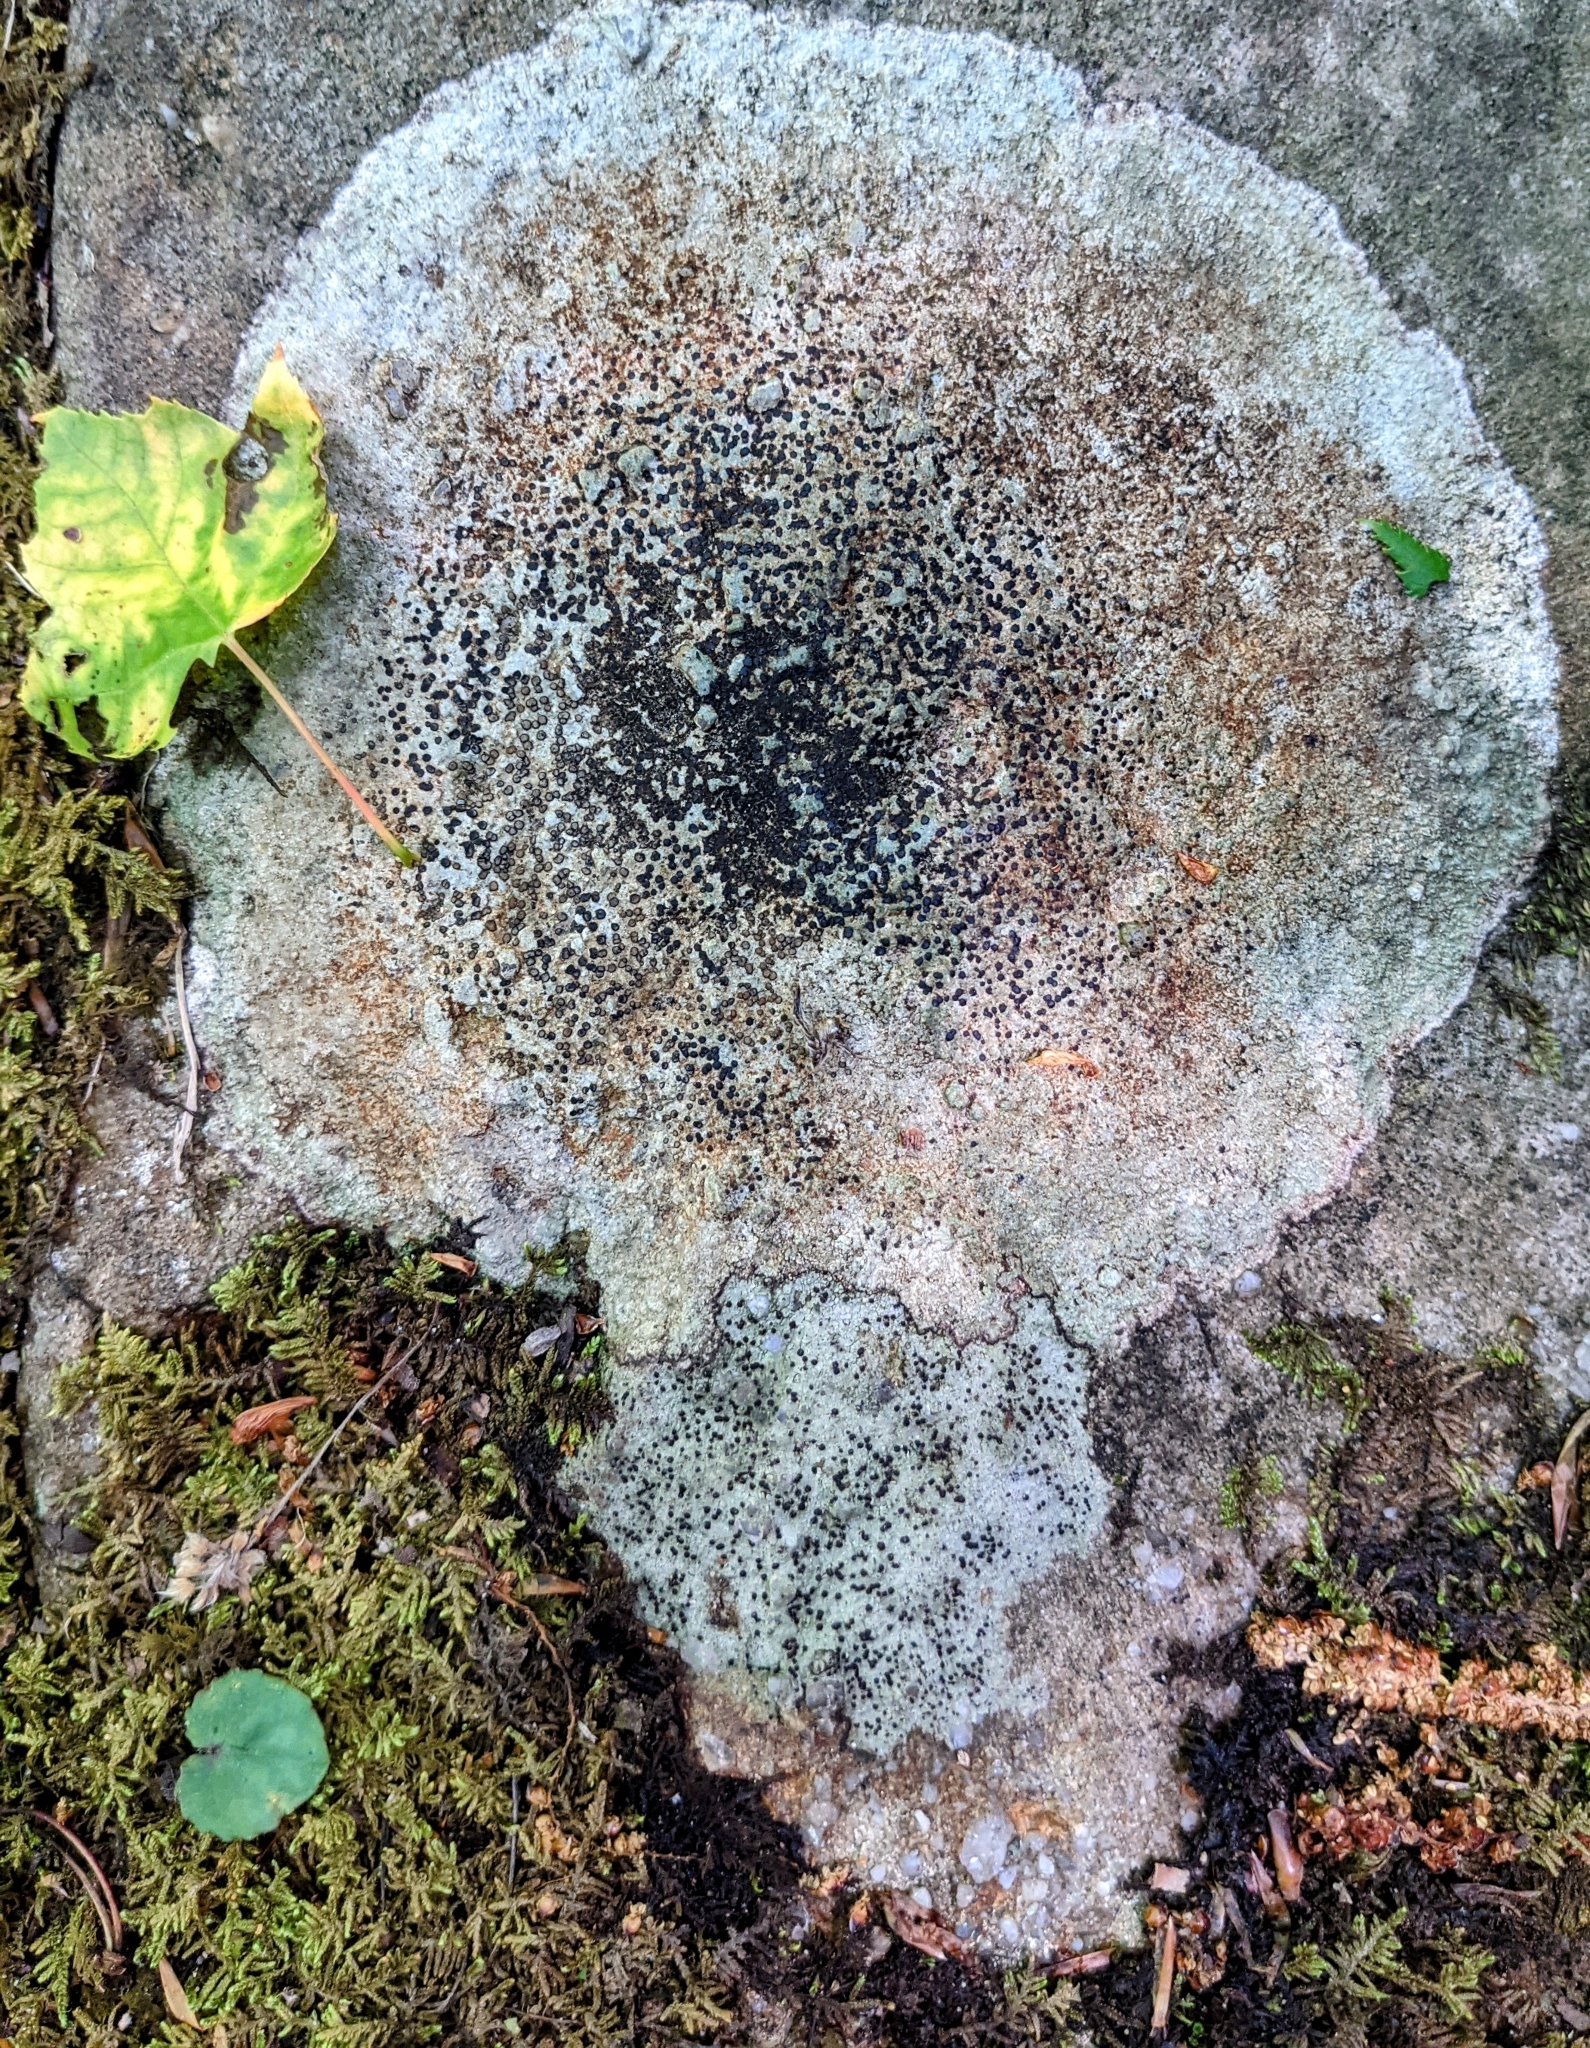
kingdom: Fungi
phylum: Ascomycota
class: Lecanoromycetes
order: Lecideales
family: Lecideaceae
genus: Porpidia
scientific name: Porpidia albocaerulescens
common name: Smokey-eyed boulder lichen
